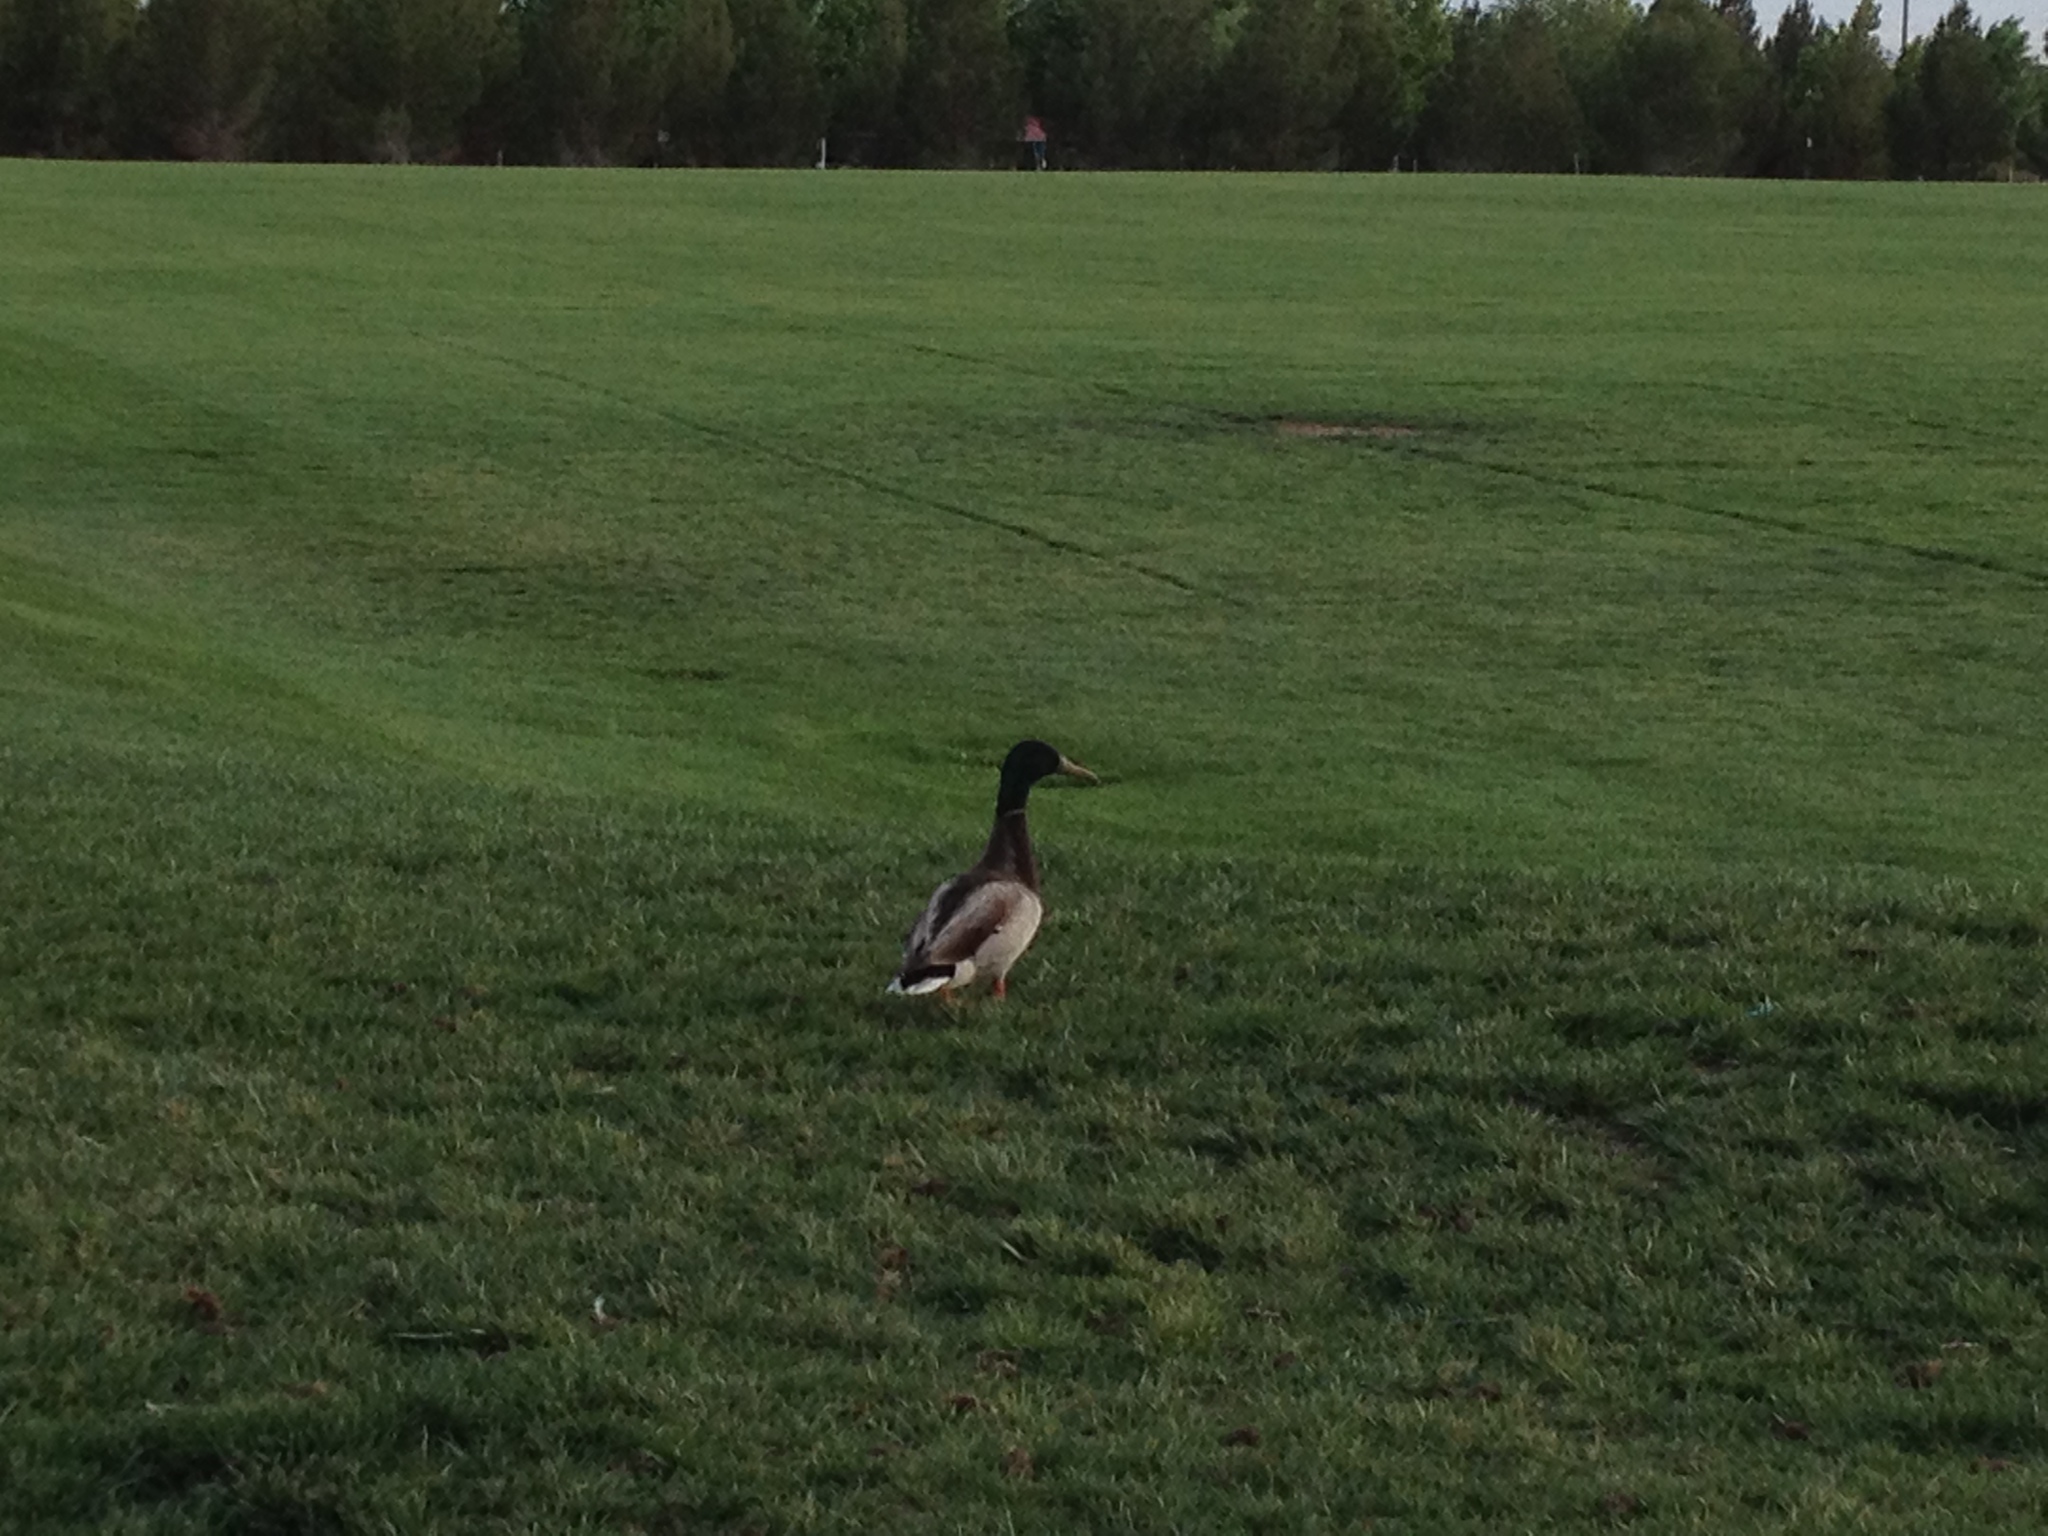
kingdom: Animalia
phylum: Chordata
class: Aves
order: Anseriformes
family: Anatidae
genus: Anas
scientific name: Anas platyrhynchos
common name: Mallard
